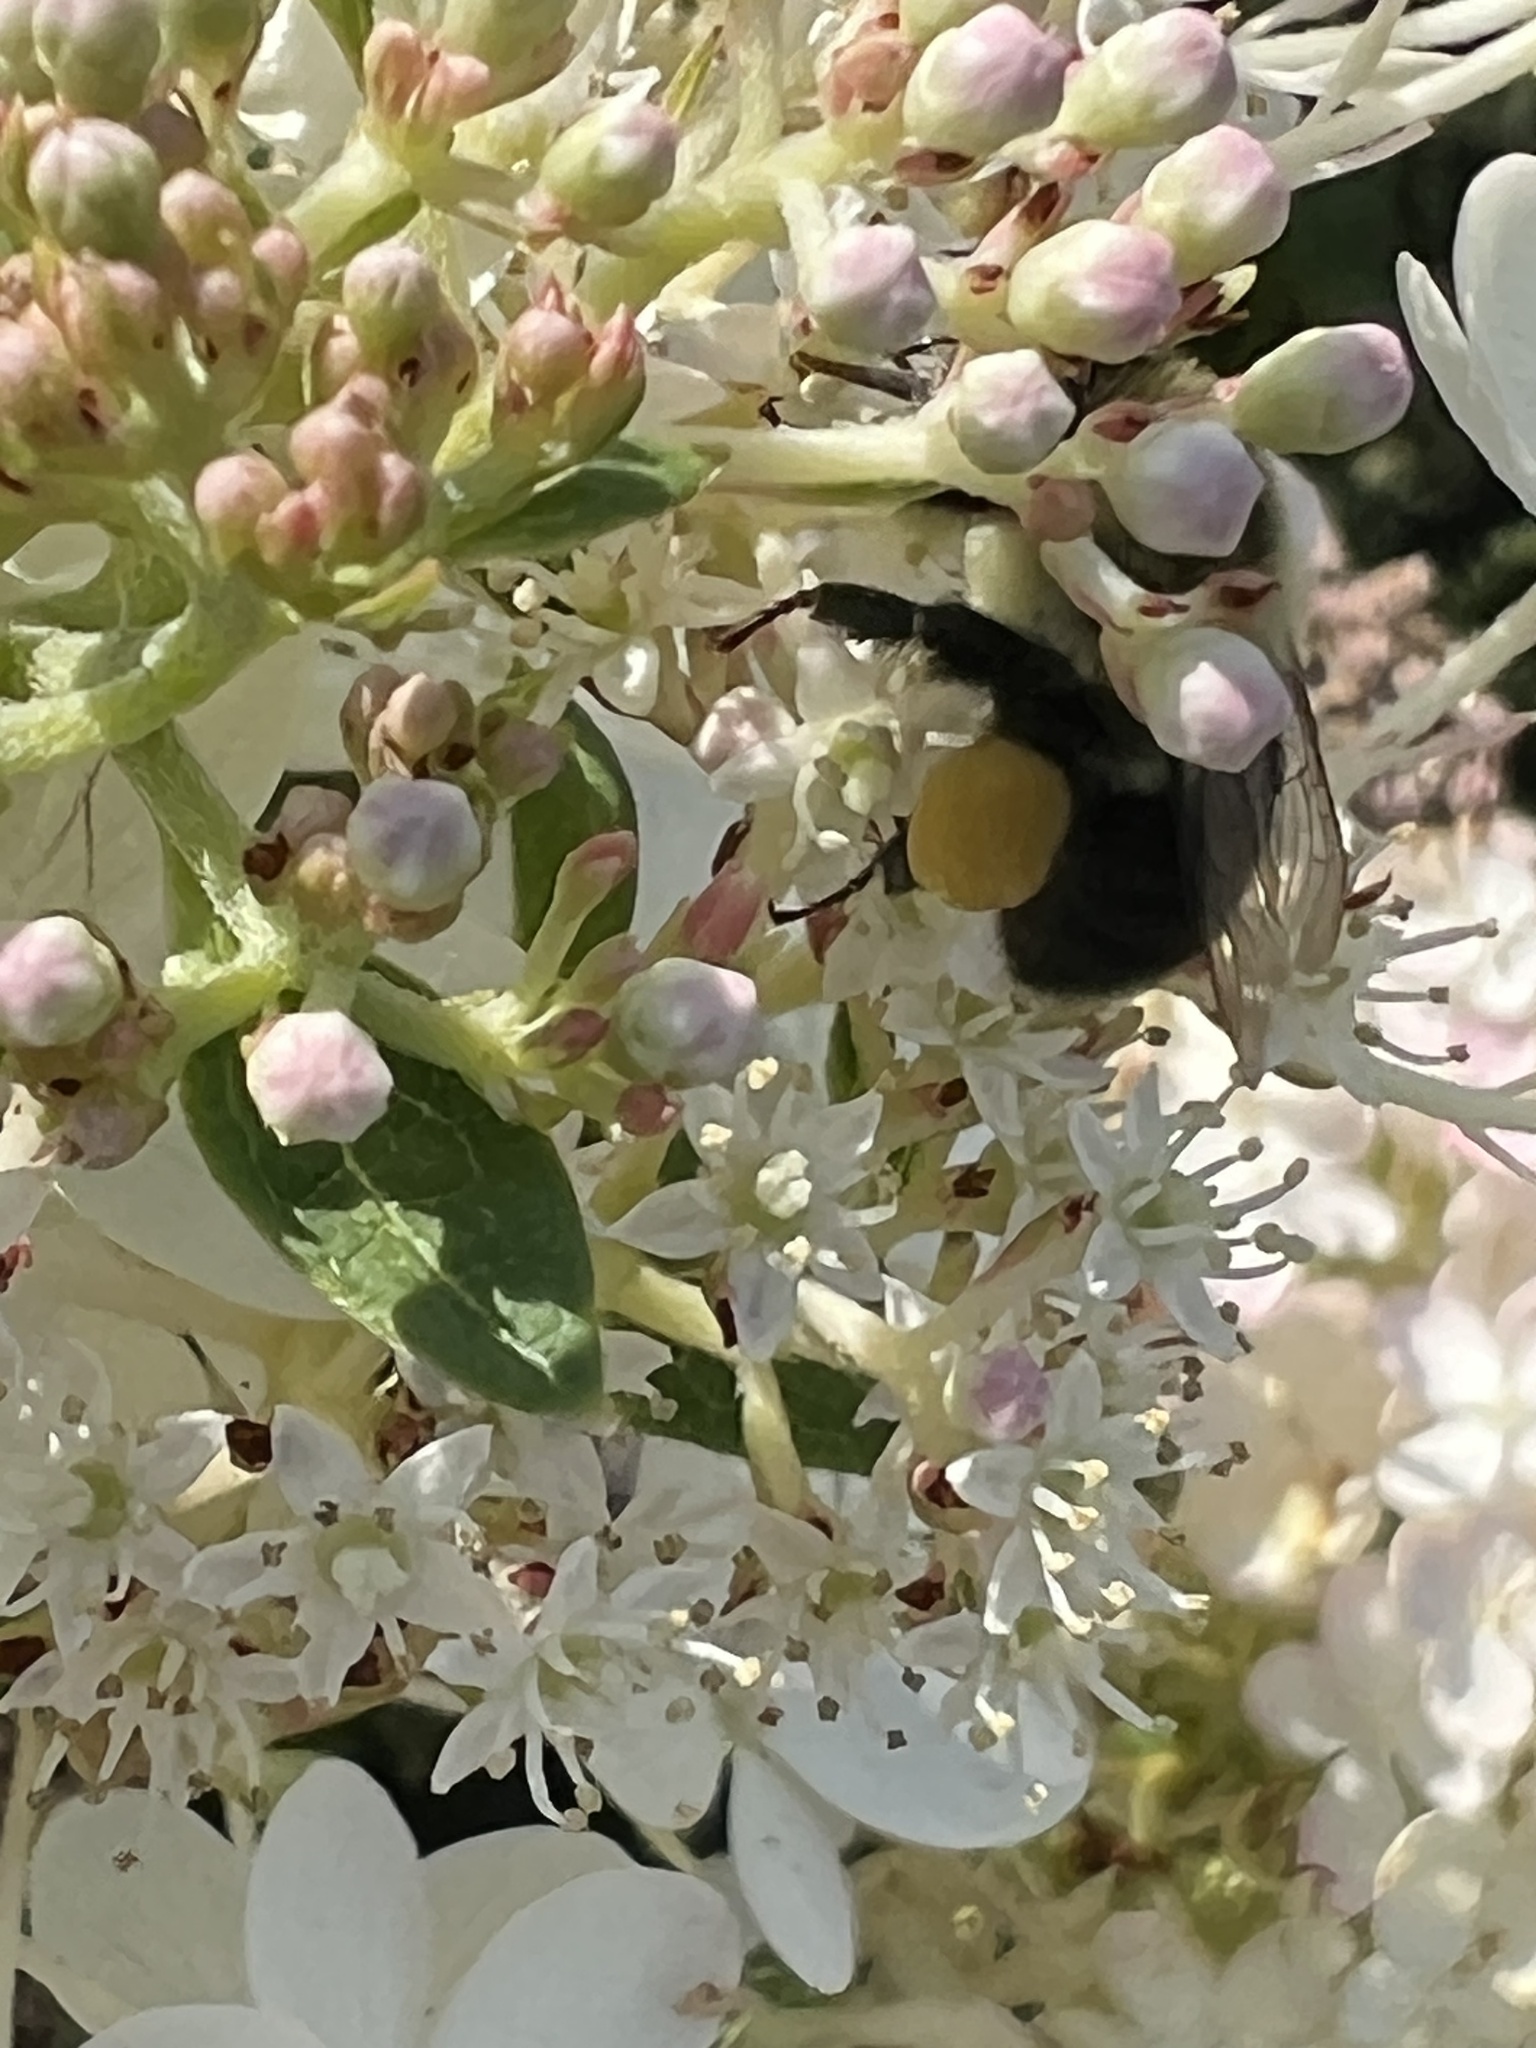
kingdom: Animalia
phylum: Arthropoda
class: Insecta
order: Hymenoptera
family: Apidae
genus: Bombus
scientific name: Bombus impatiens
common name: Common eastern bumble bee
